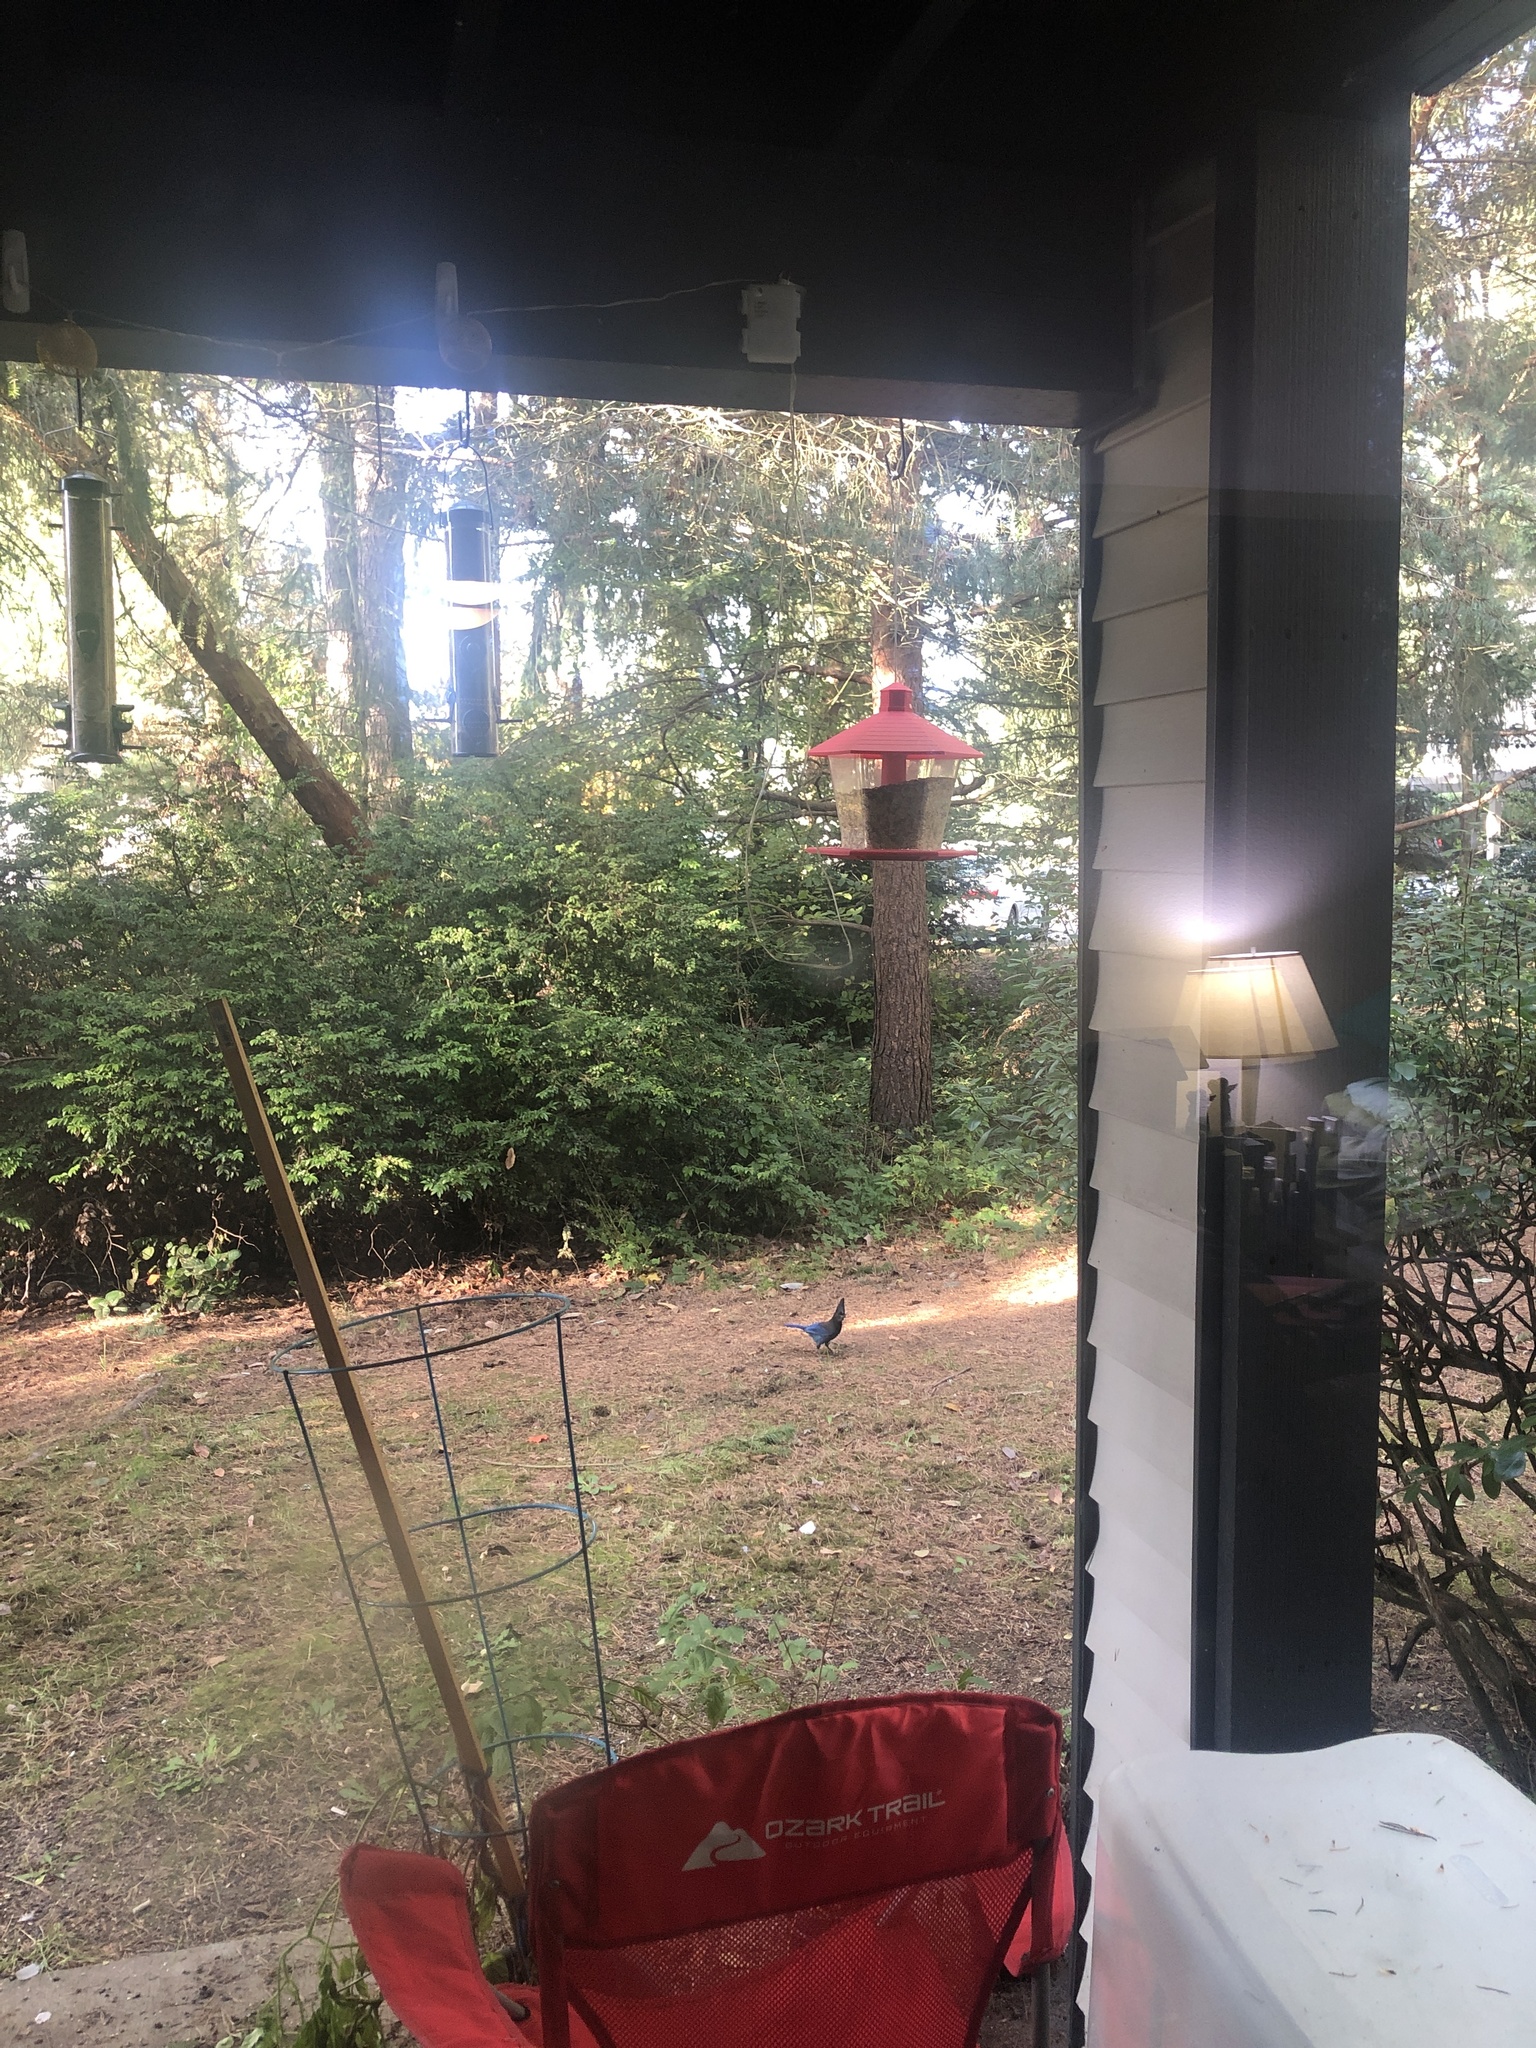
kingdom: Animalia
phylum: Chordata
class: Aves
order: Passeriformes
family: Corvidae
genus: Cyanocitta
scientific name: Cyanocitta stelleri
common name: Steller's jay
